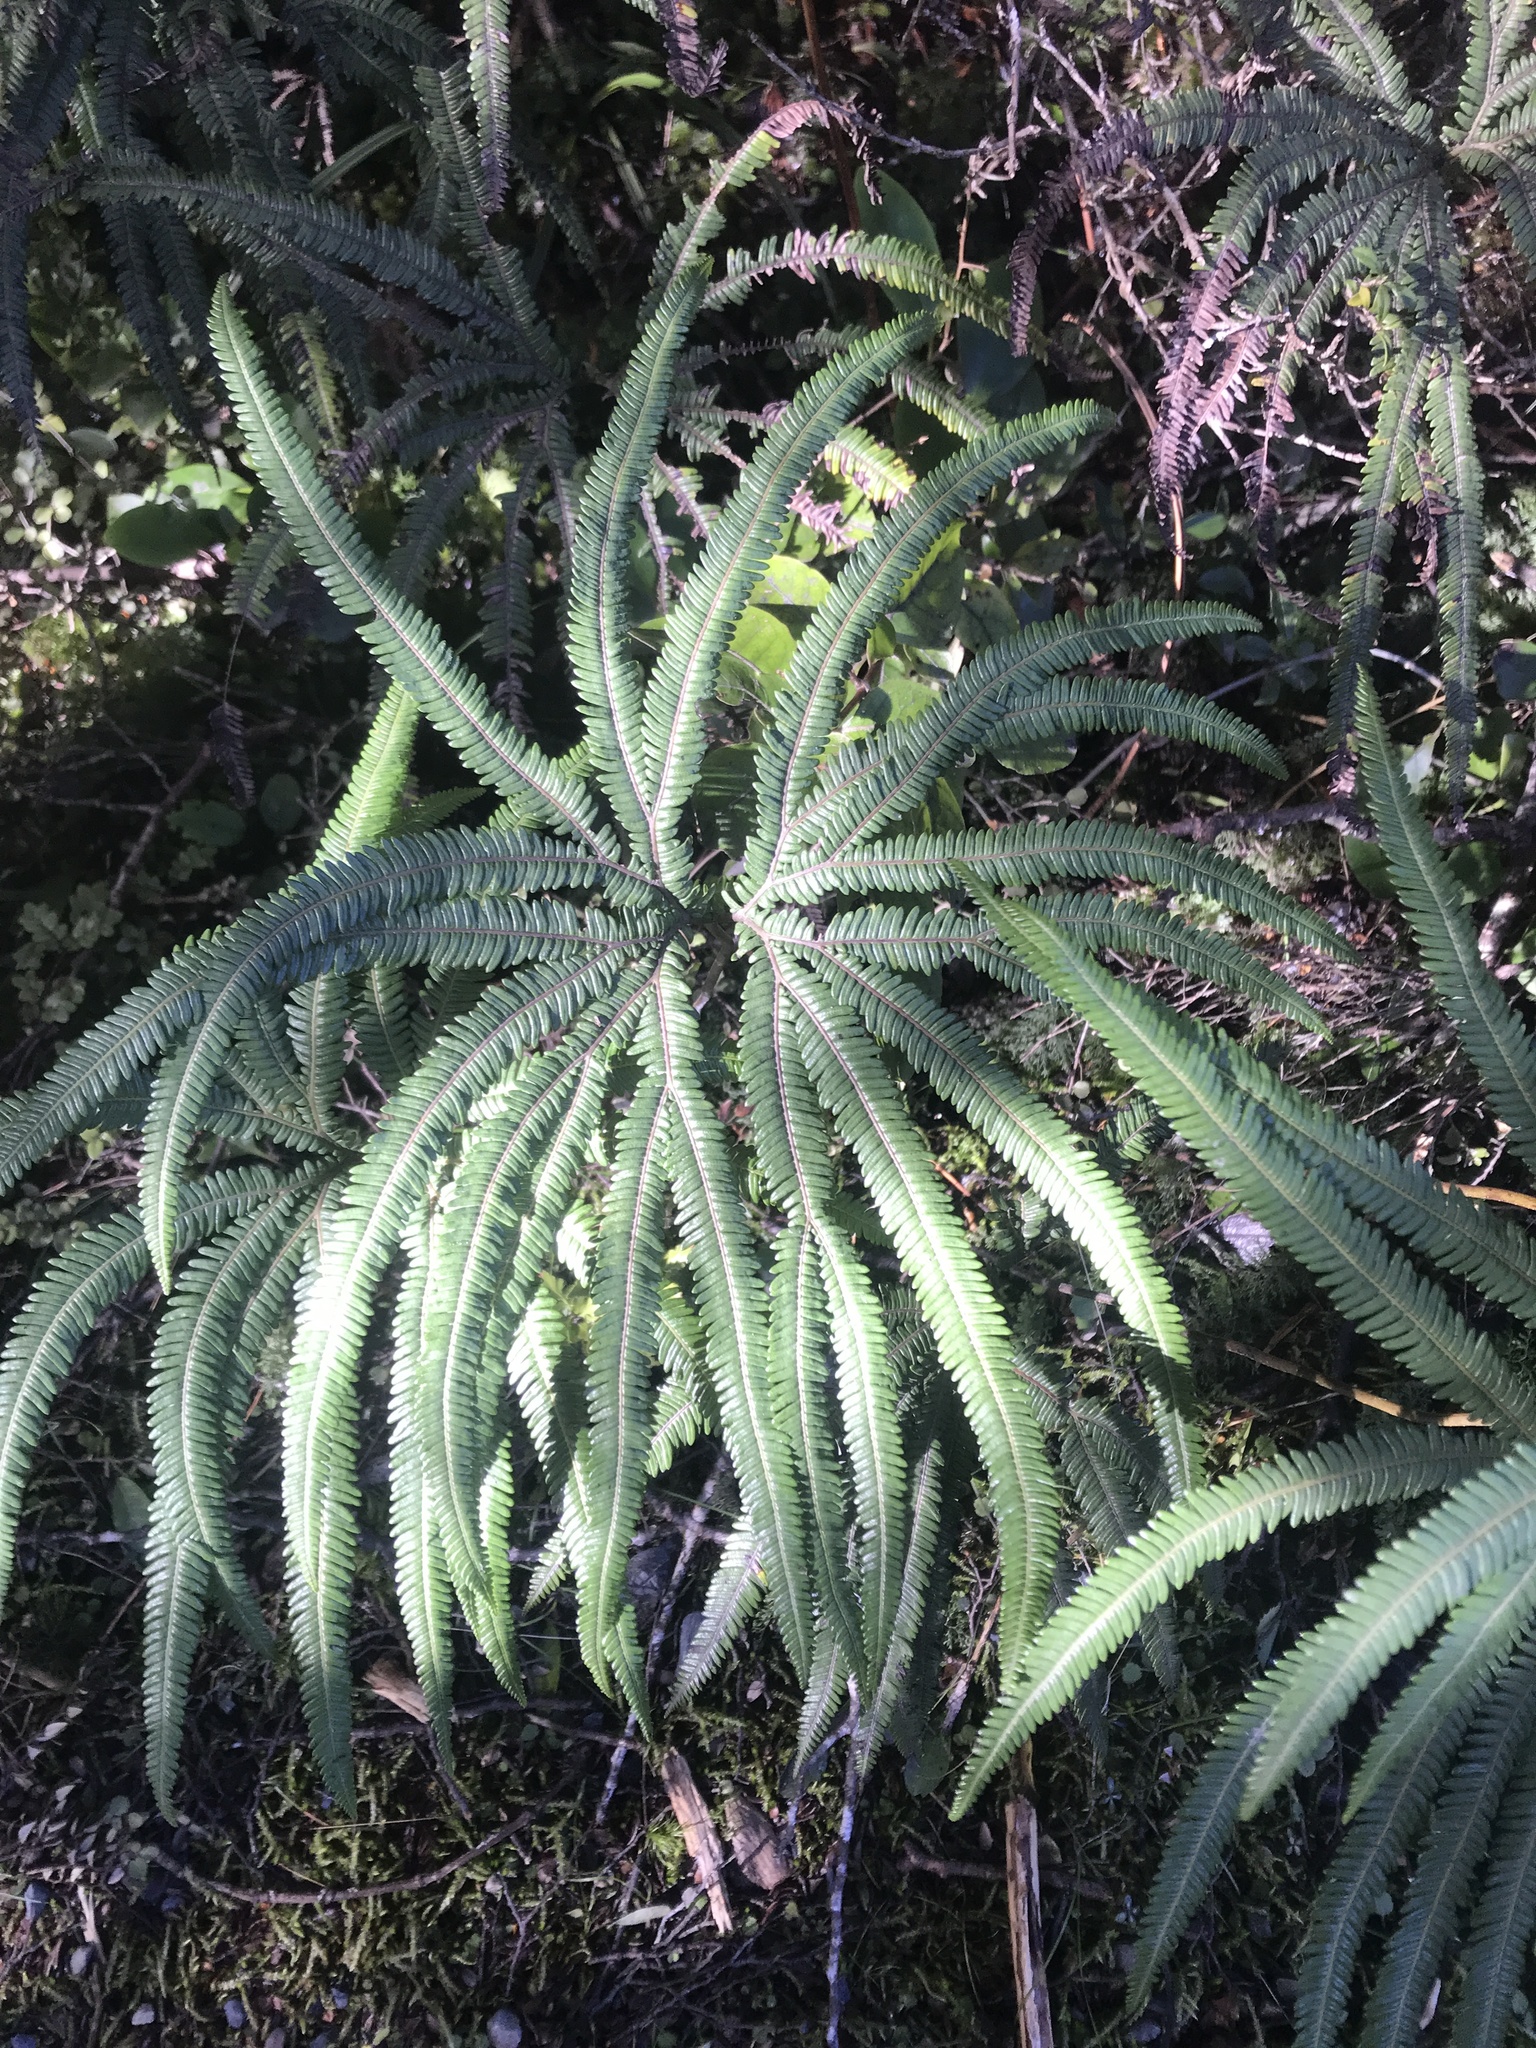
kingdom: Plantae
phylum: Tracheophyta
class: Polypodiopsida
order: Gleicheniales
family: Gleicheniaceae
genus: Sticherus
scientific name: Sticherus cunninghamii
